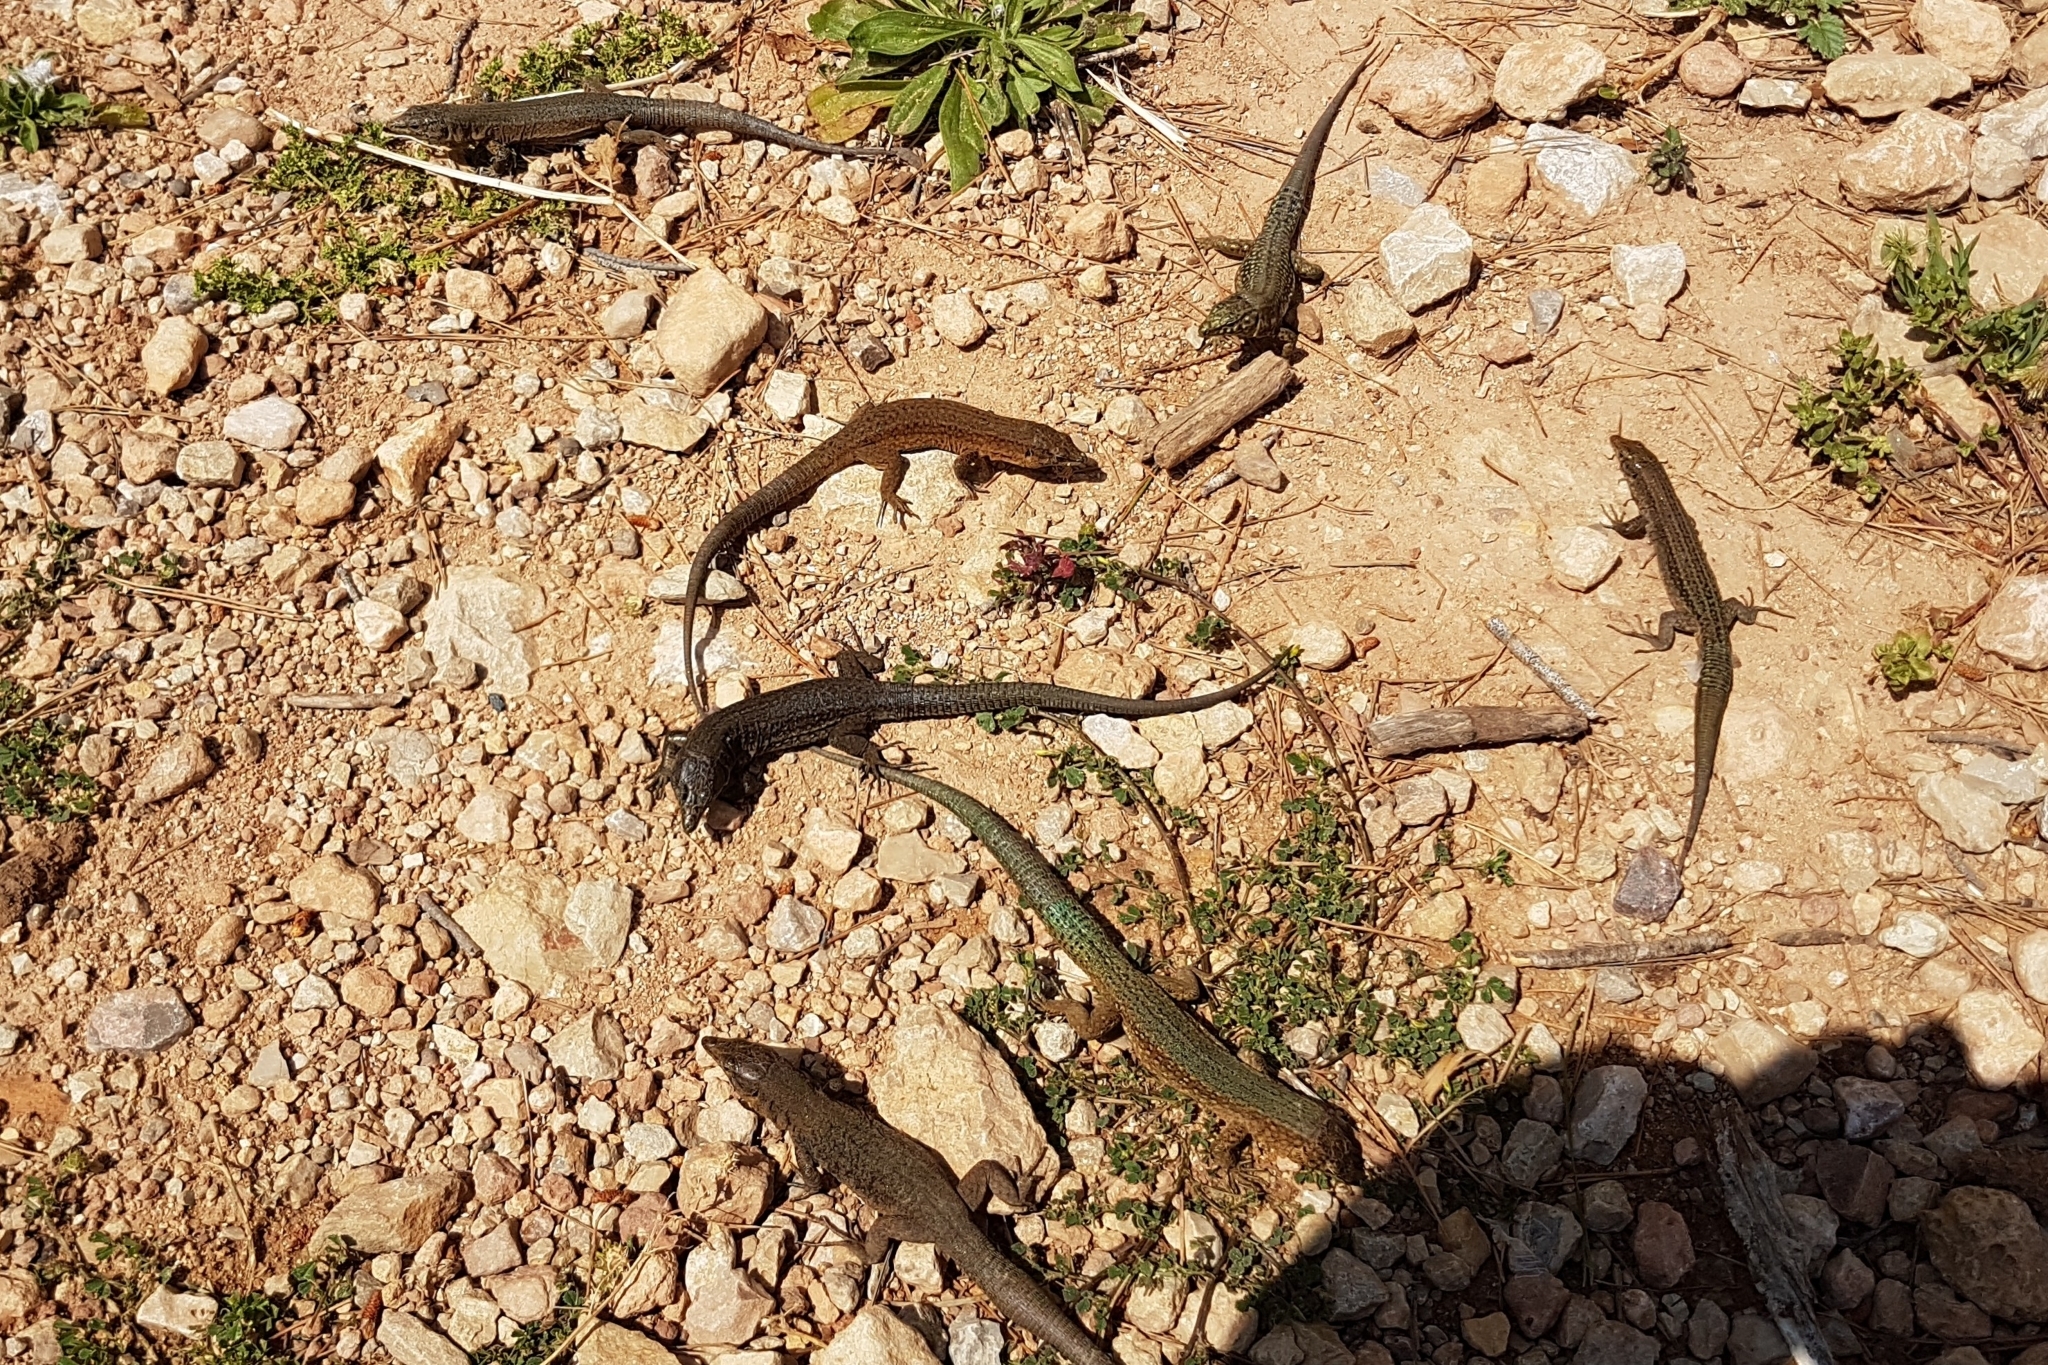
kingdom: Animalia
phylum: Chordata
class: Squamata
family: Lacertidae
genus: Podarcis
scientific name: Podarcis lilfordi
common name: Belearic lizard
